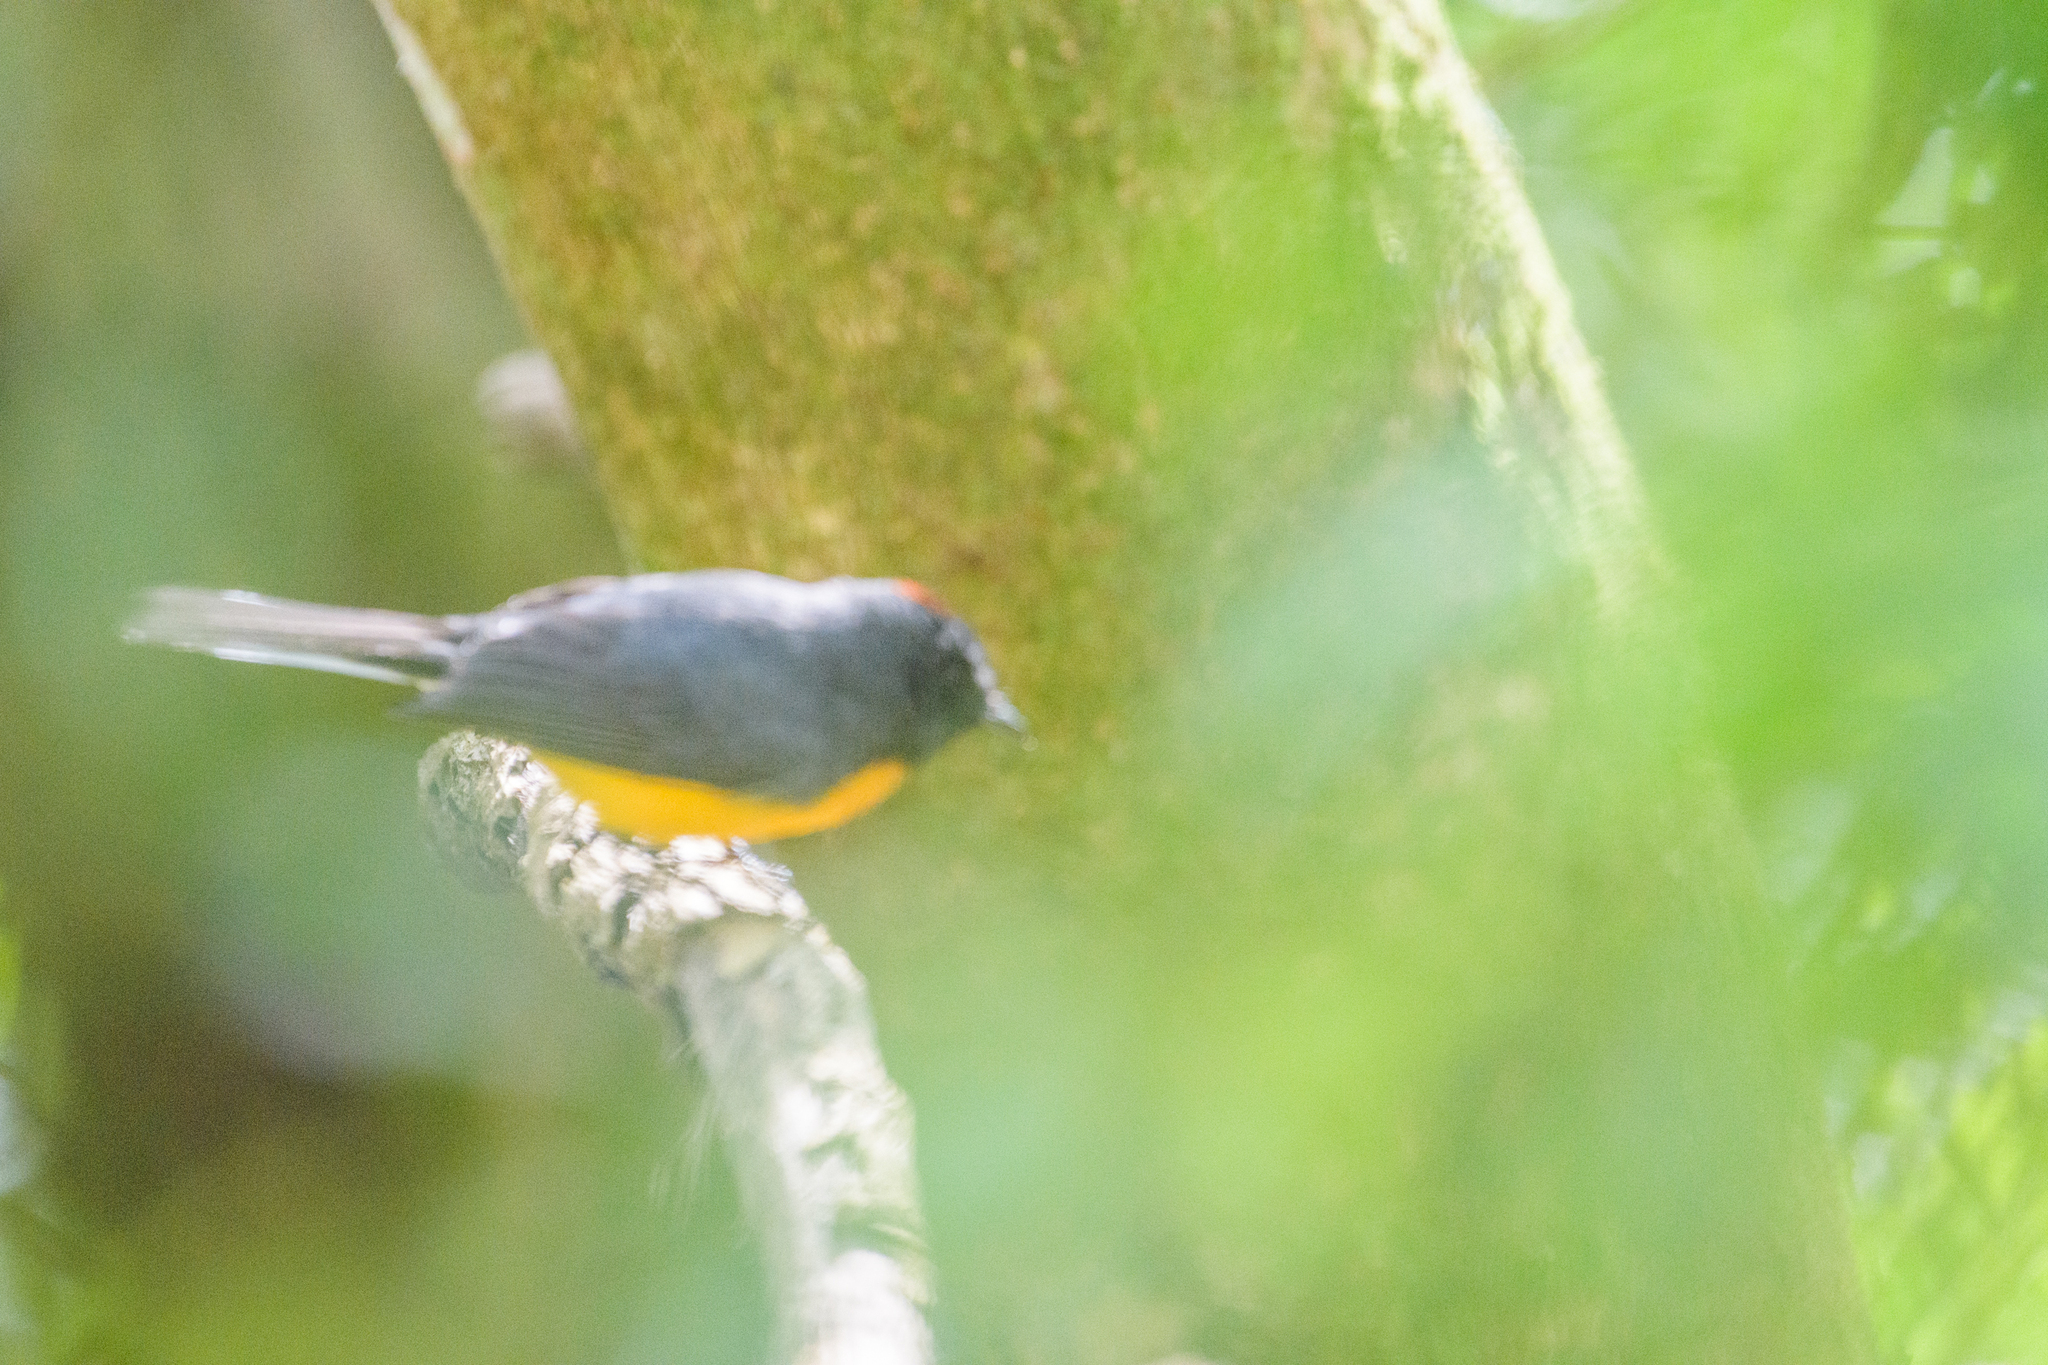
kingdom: Animalia
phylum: Chordata
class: Aves
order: Passeriformes
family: Parulidae
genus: Myioborus
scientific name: Myioborus miniatus
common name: Slate-throated redstart
